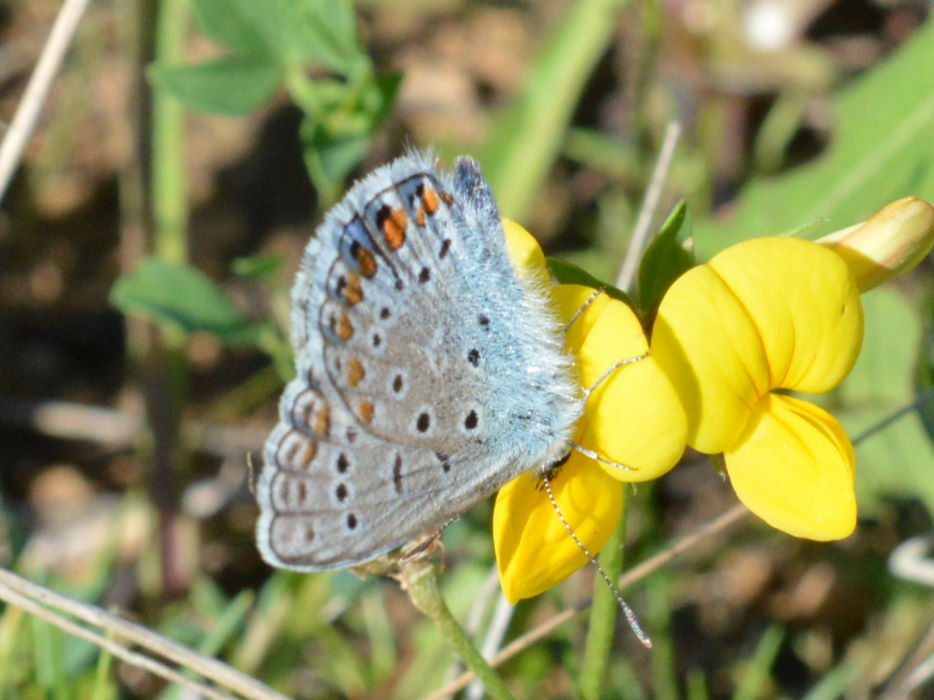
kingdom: Animalia
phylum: Arthropoda
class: Insecta
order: Lepidoptera
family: Lycaenidae
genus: Polyommatus
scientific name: Polyommatus icarus
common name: Common blue
